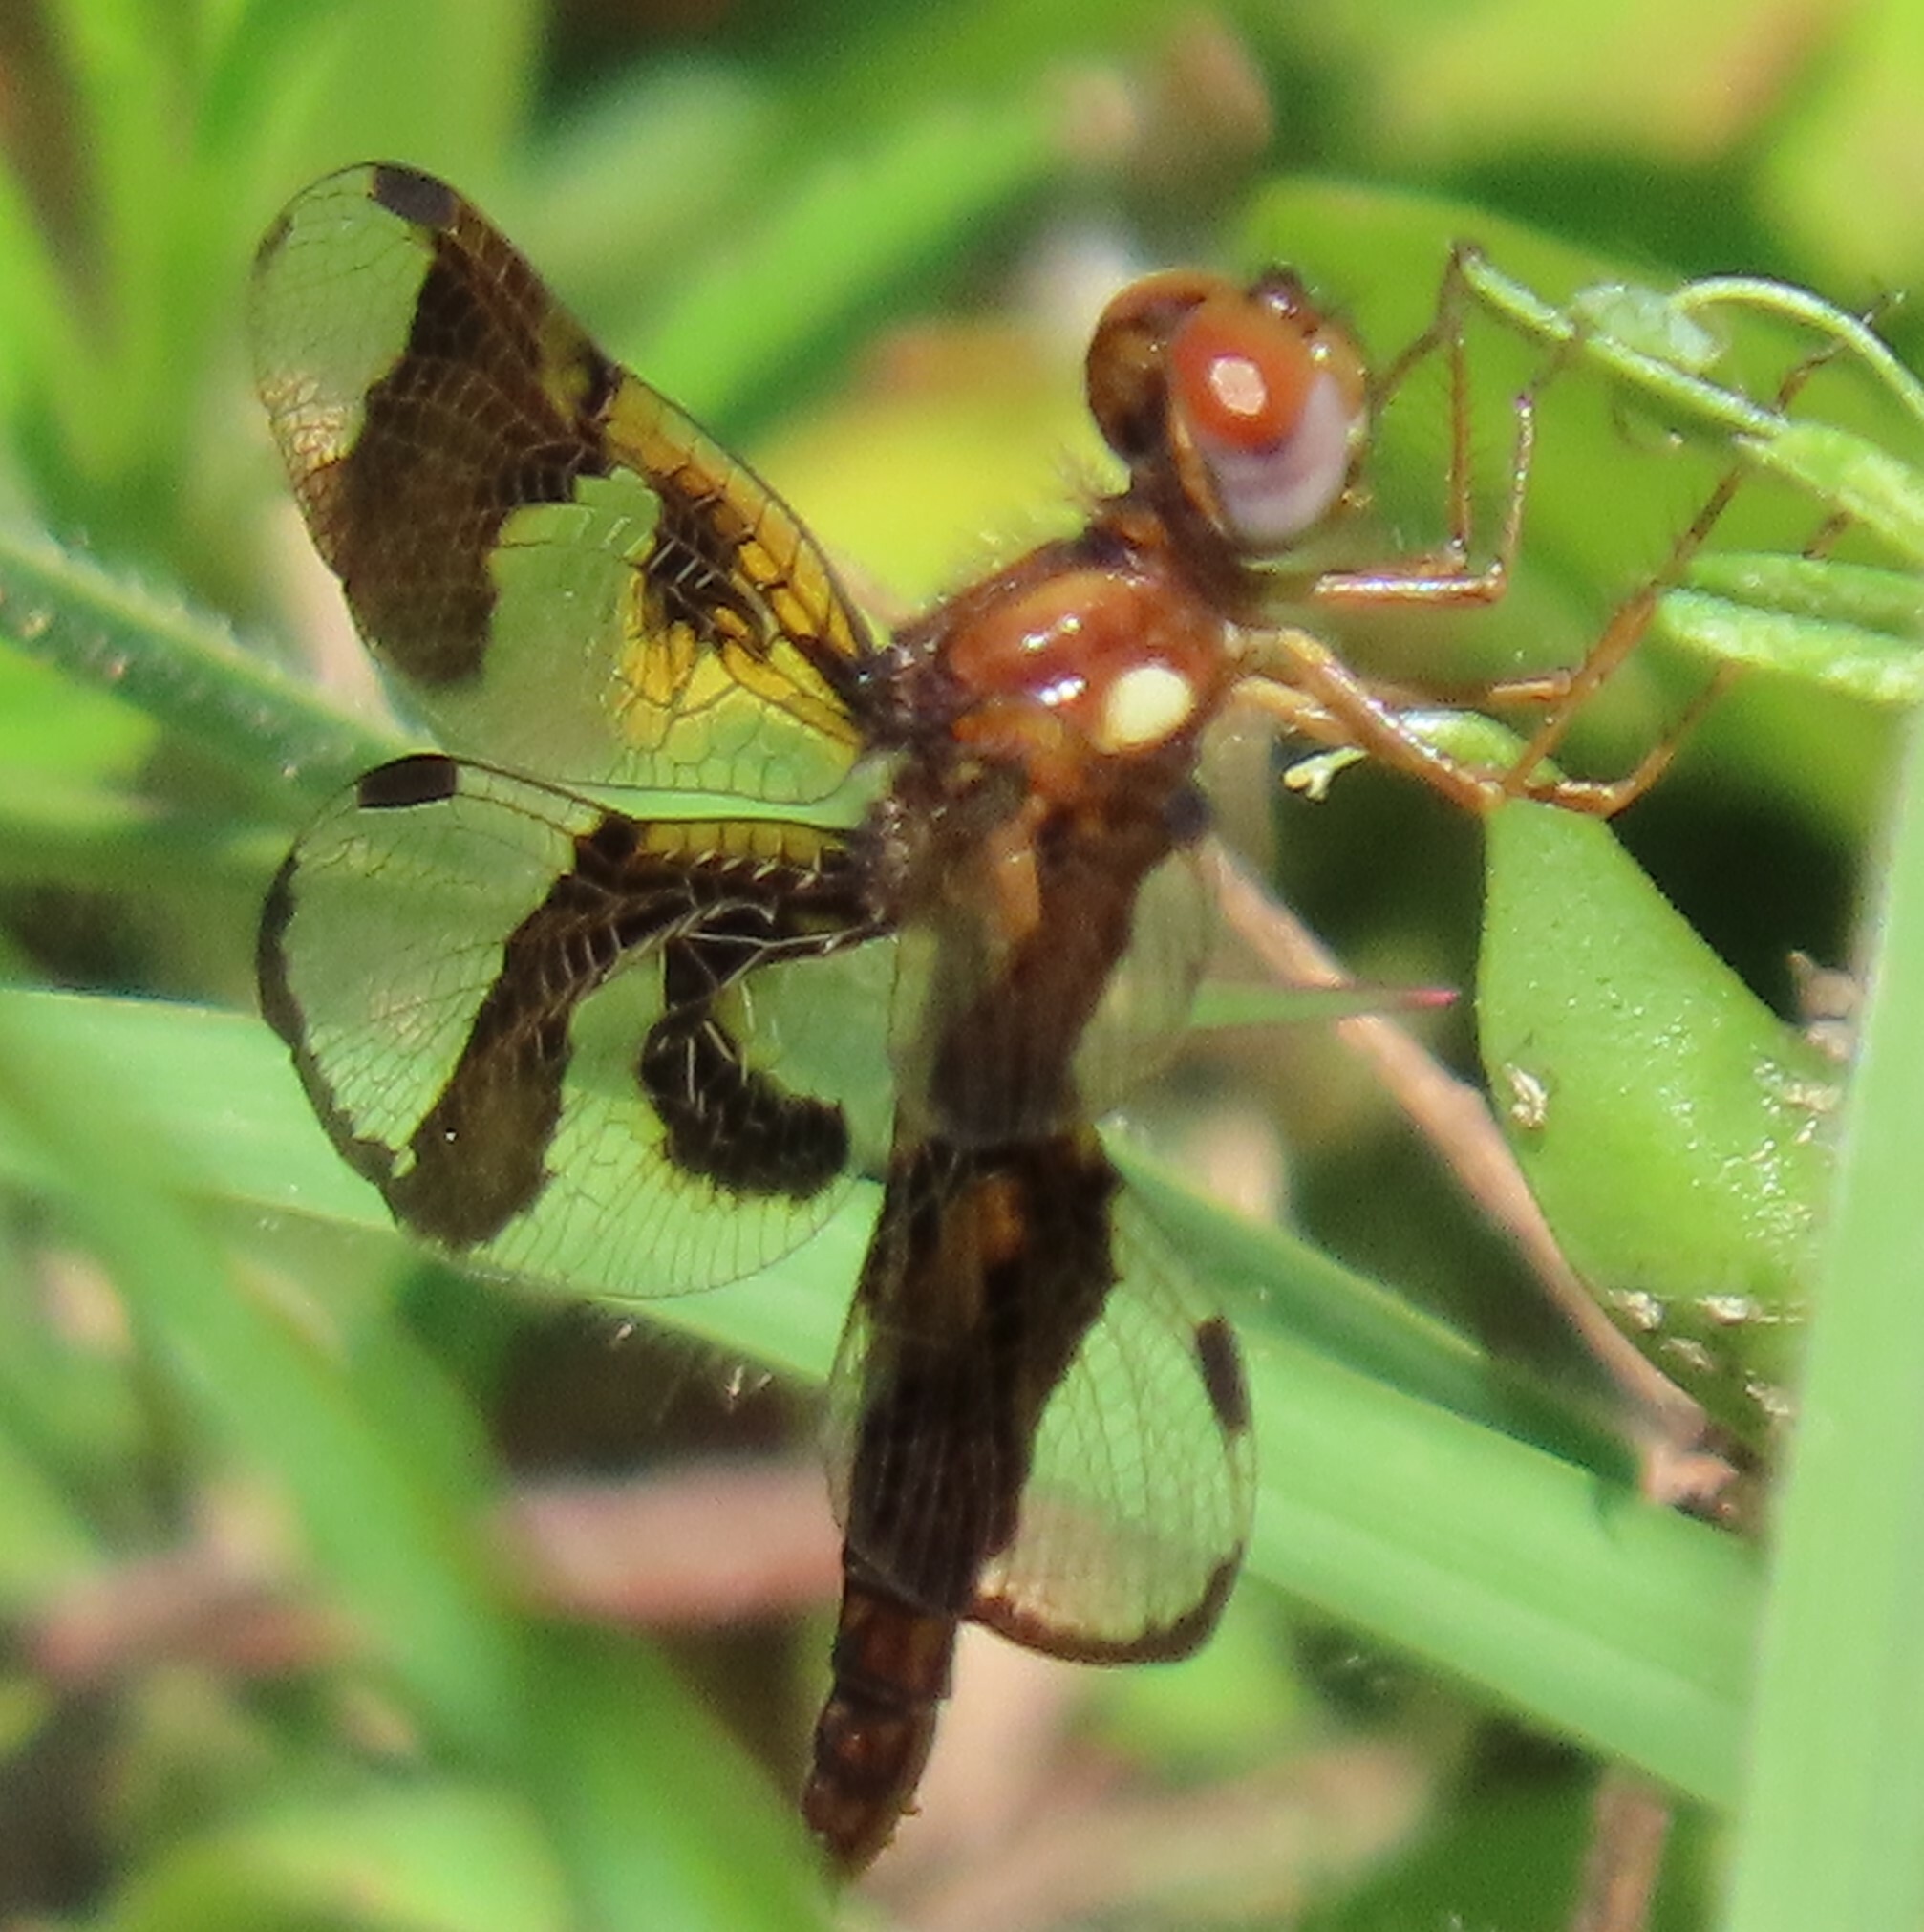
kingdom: Animalia
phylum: Arthropoda
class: Insecta
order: Odonata
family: Libellulidae
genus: Perithemis
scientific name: Perithemis tenera
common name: Eastern amberwing
